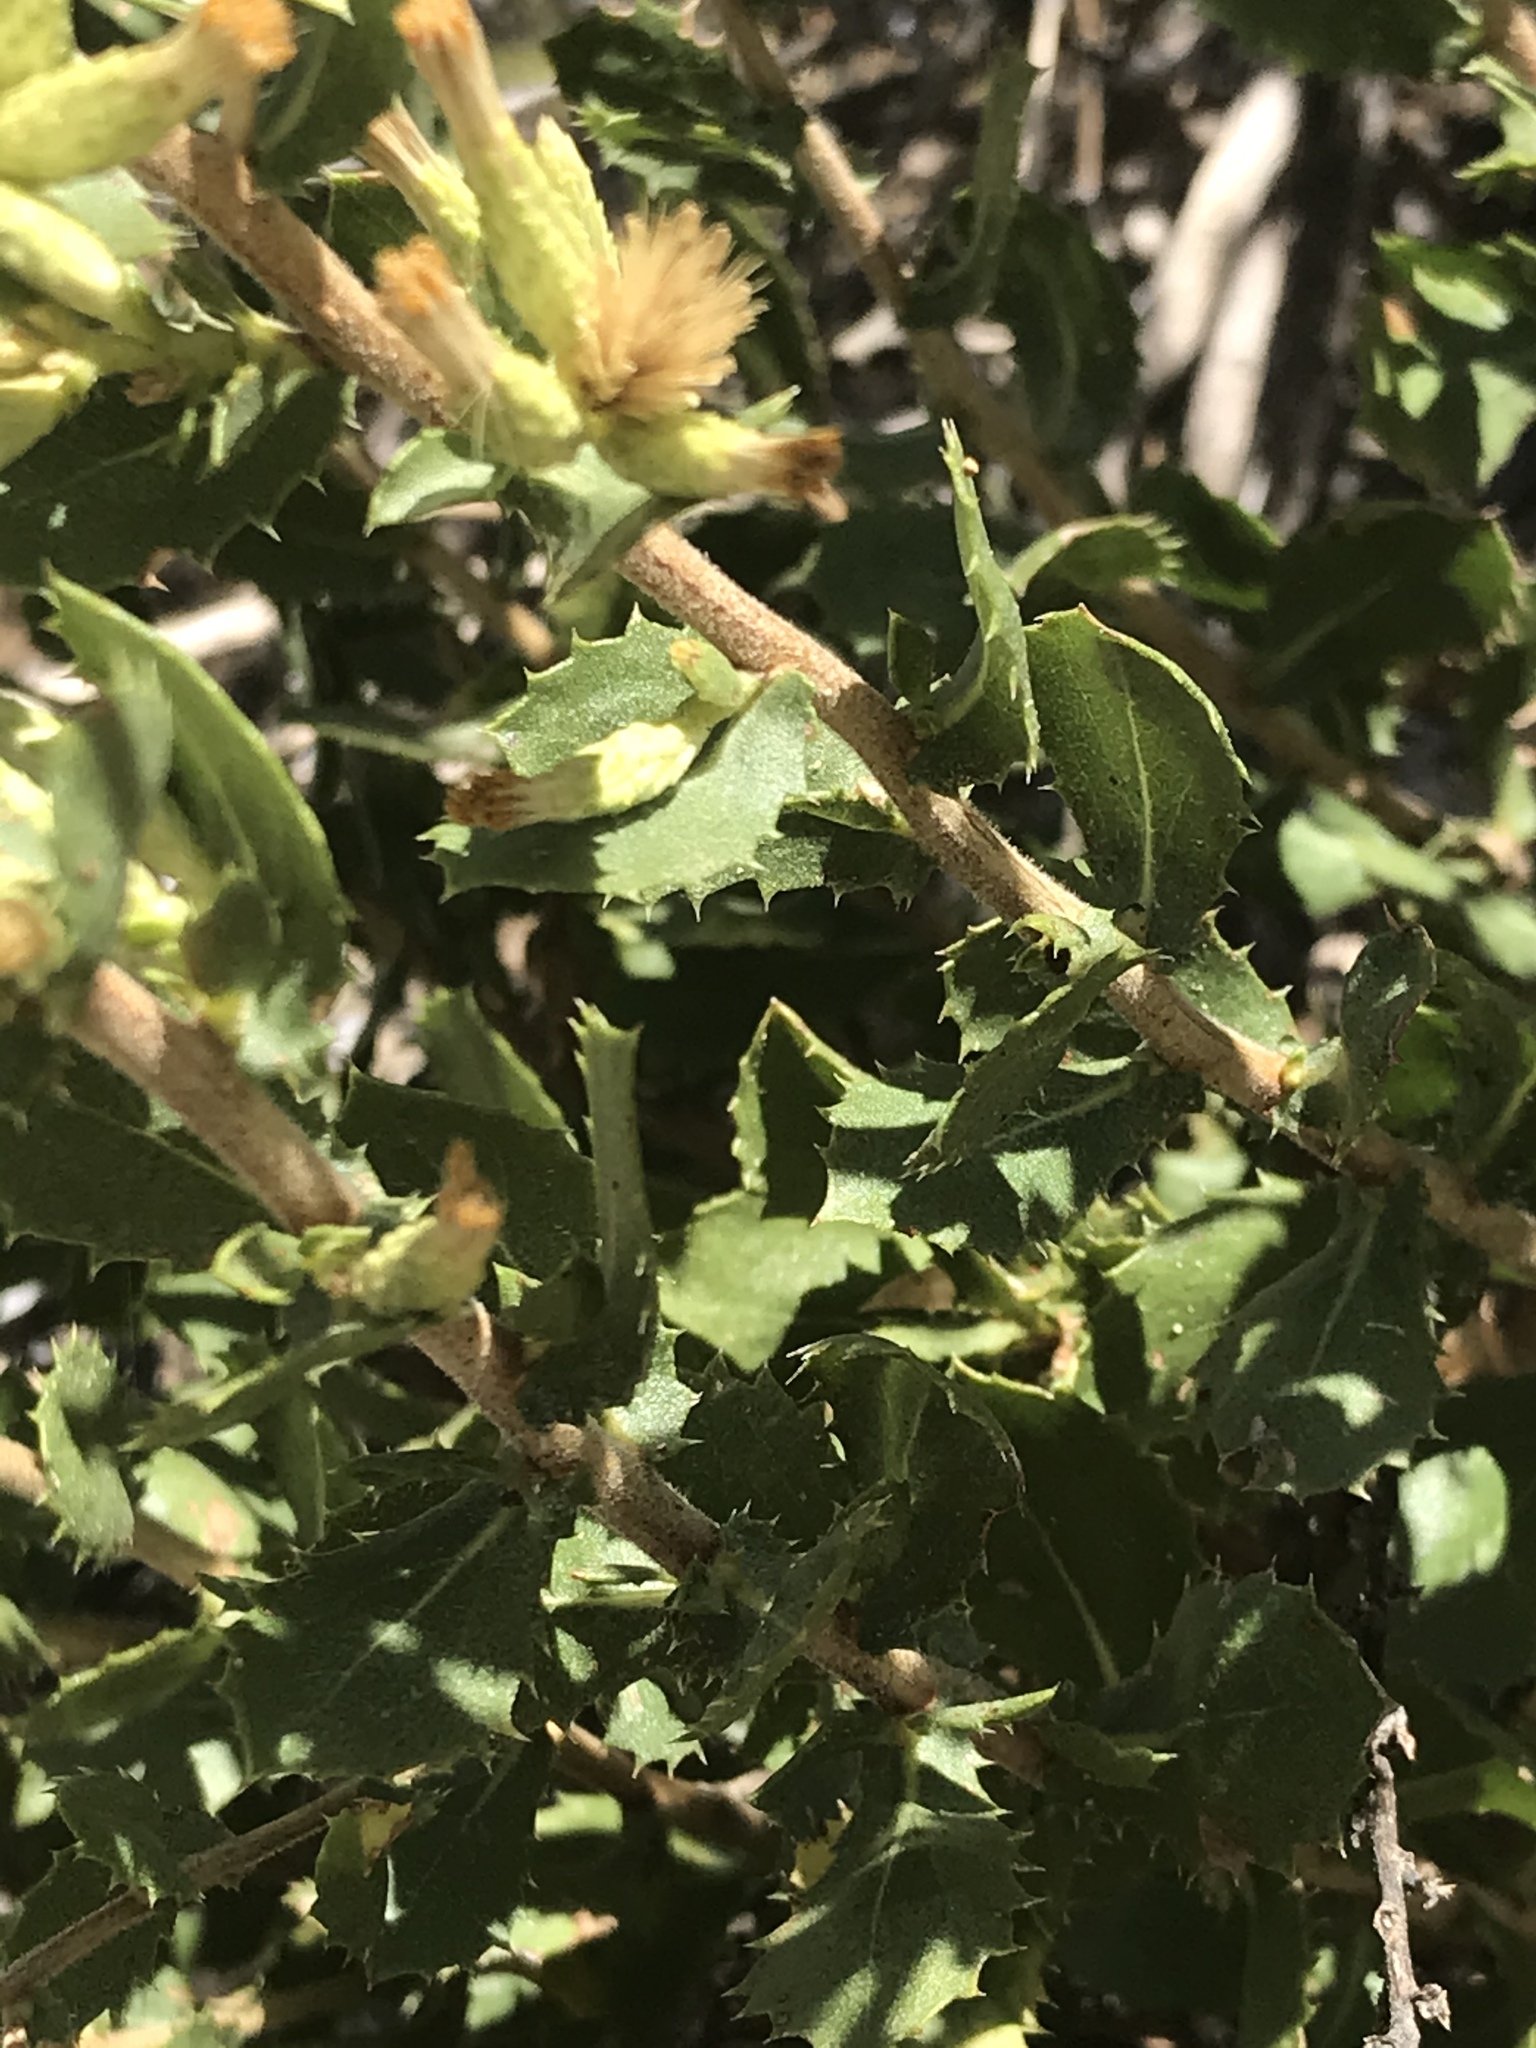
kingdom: Plantae
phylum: Tracheophyta
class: Magnoliopsida
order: Asterales
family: Asteraceae
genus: Hazardia
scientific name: Hazardia stenolepis
